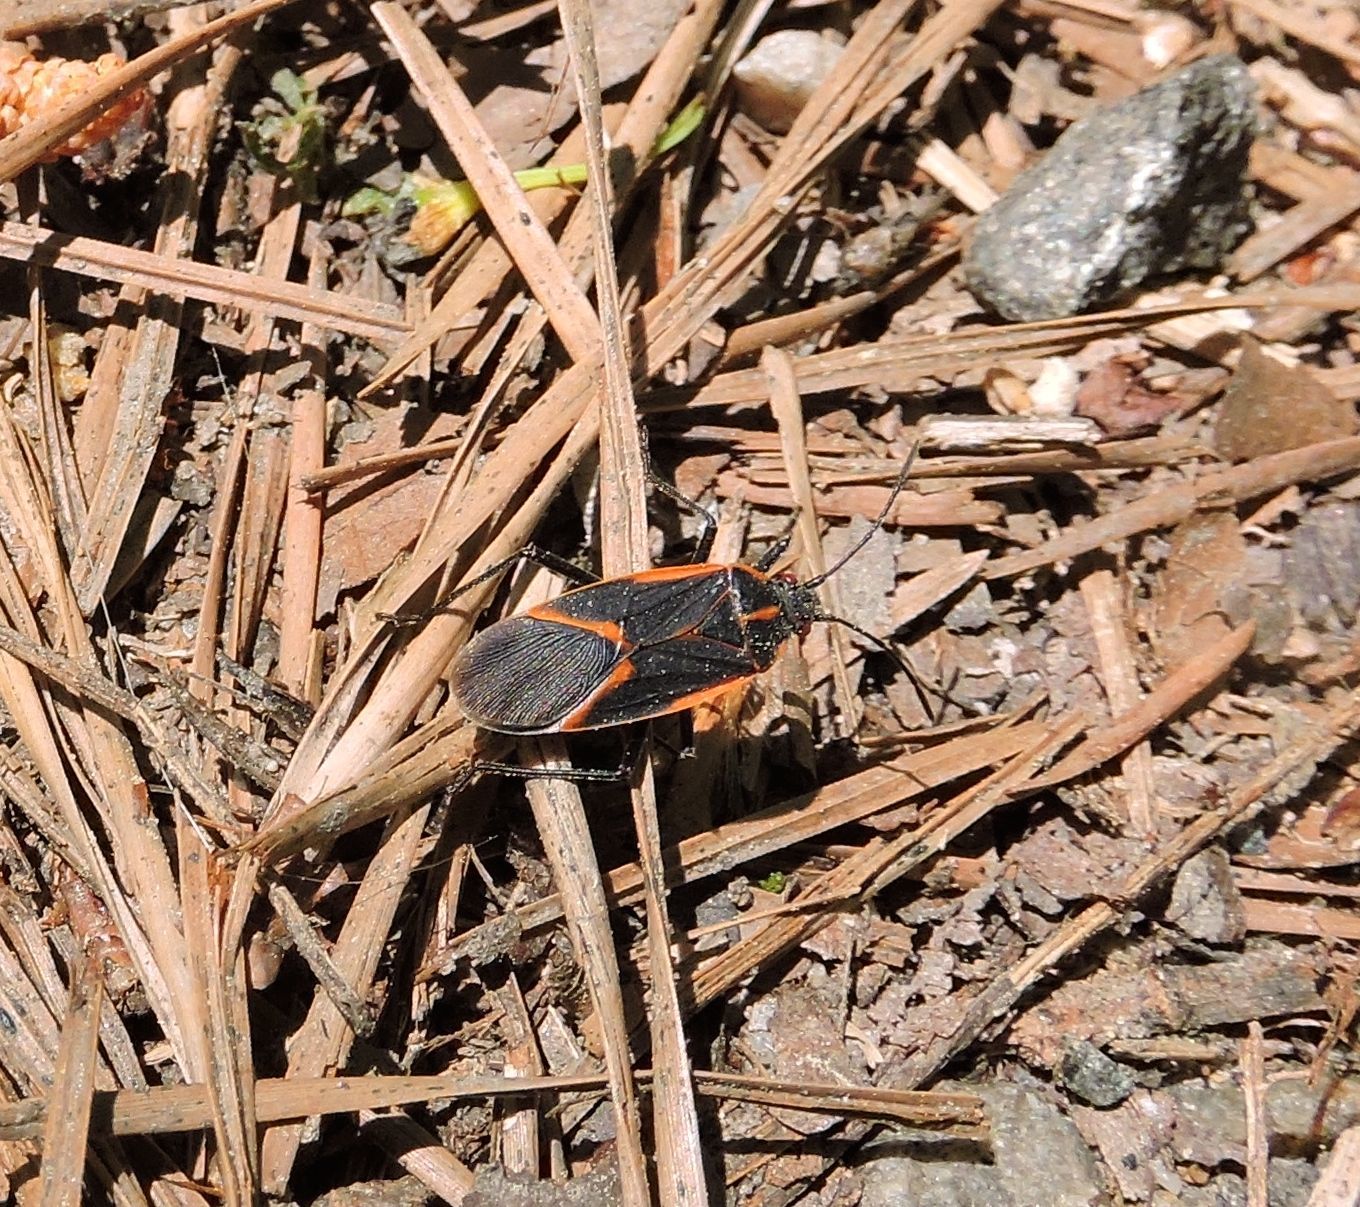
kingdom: Animalia
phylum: Arthropoda
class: Insecta
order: Hemiptera
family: Rhopalidae
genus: Boisea
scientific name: Boisea trivittata
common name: Boxelder bug
